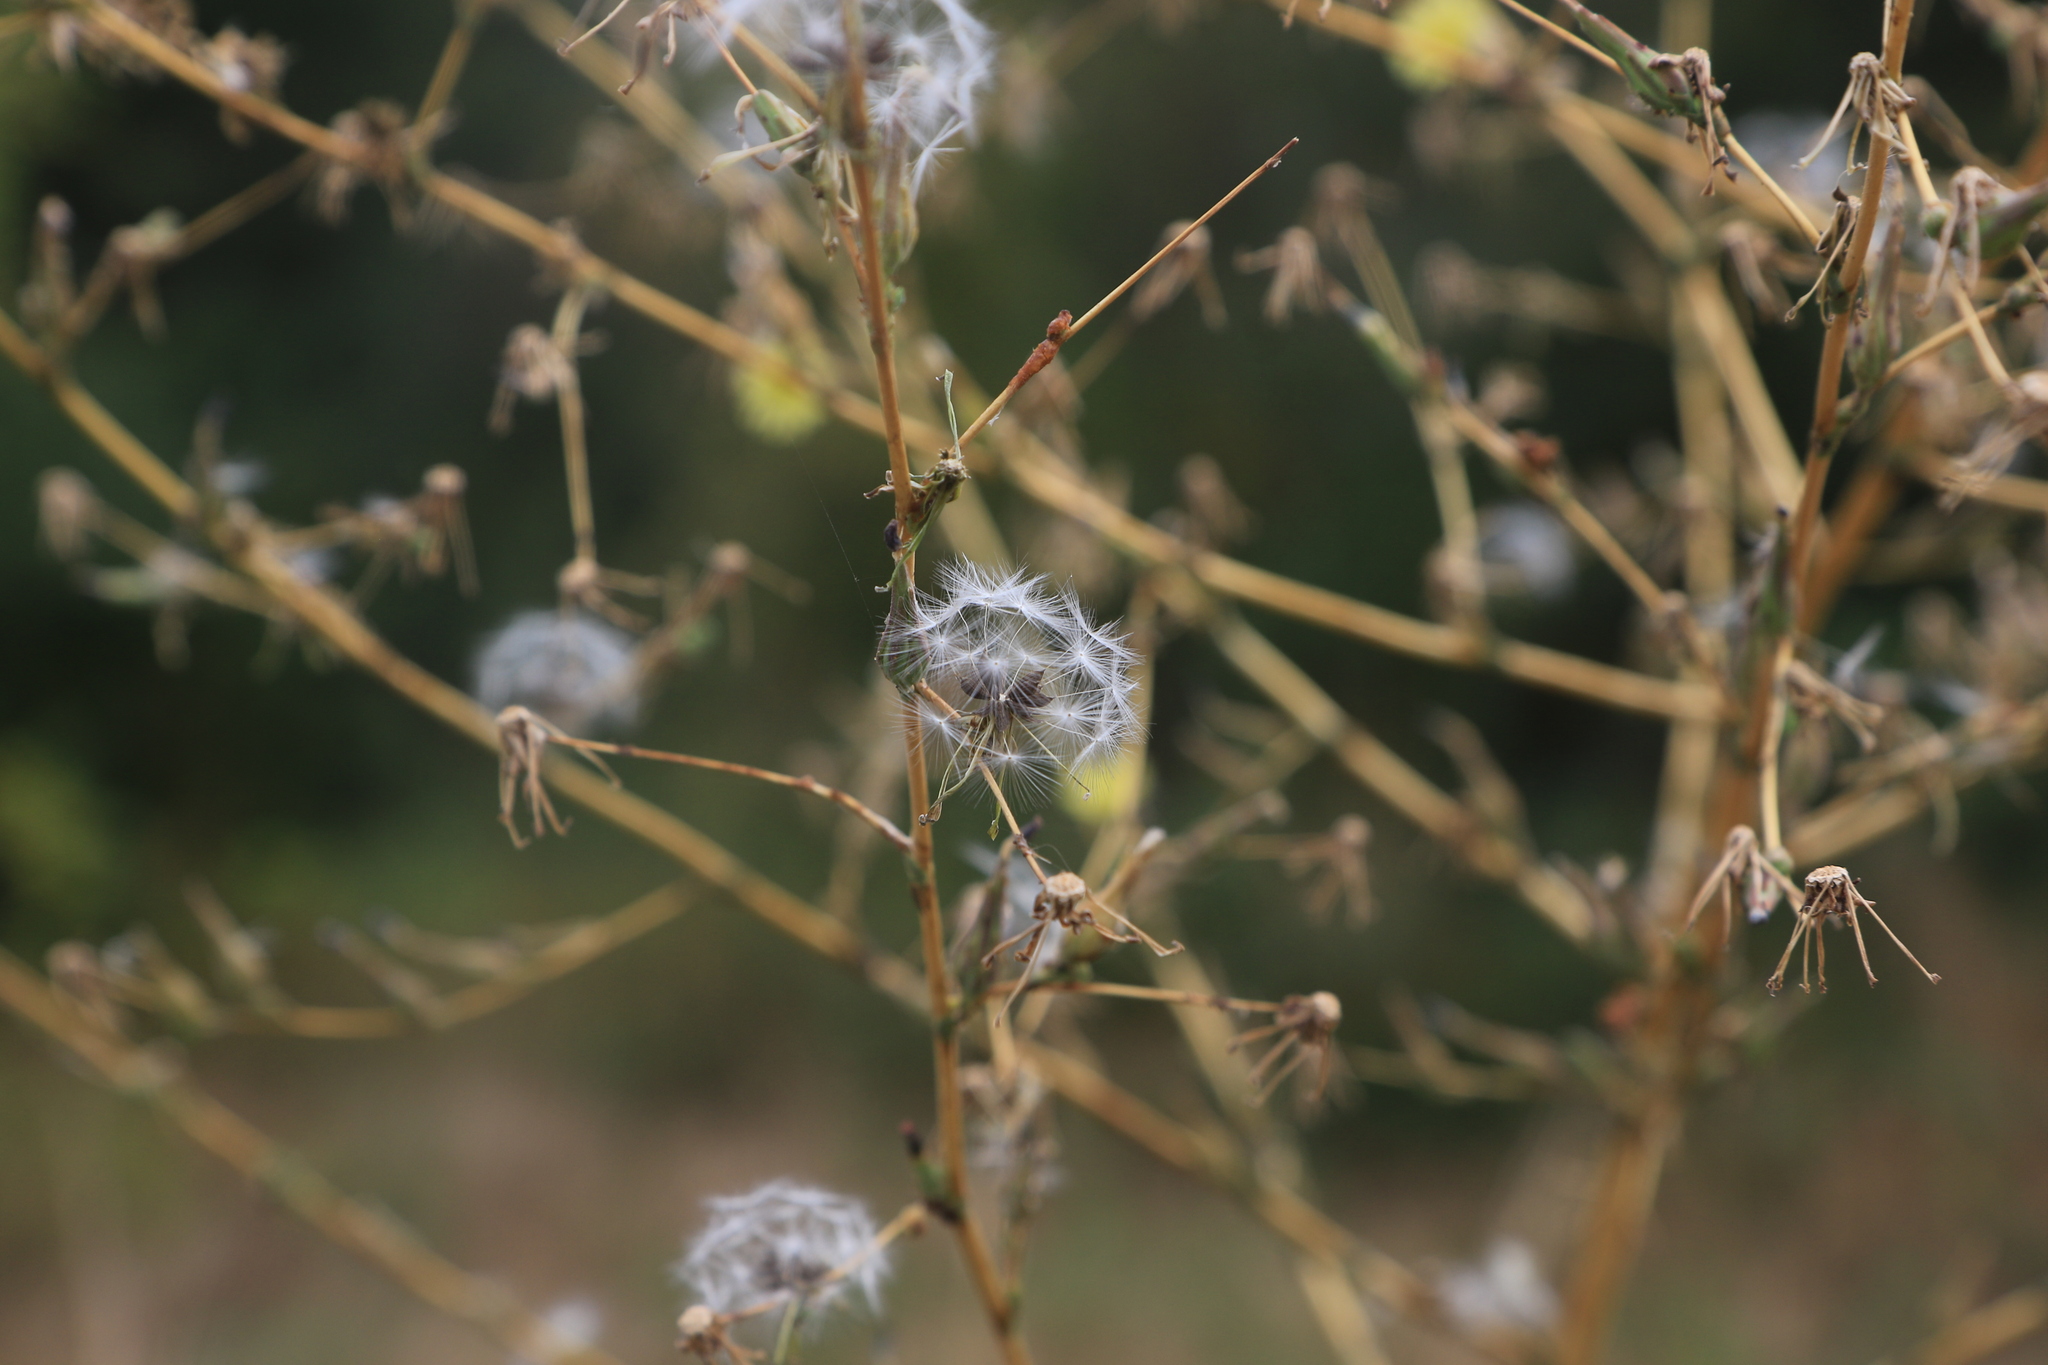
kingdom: Plantae
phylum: Tracheophyta
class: Magnoliopsida
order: Asterales
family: Asteraceae
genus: Lactuca
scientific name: Lactuca serriola
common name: Prickly lettuce
